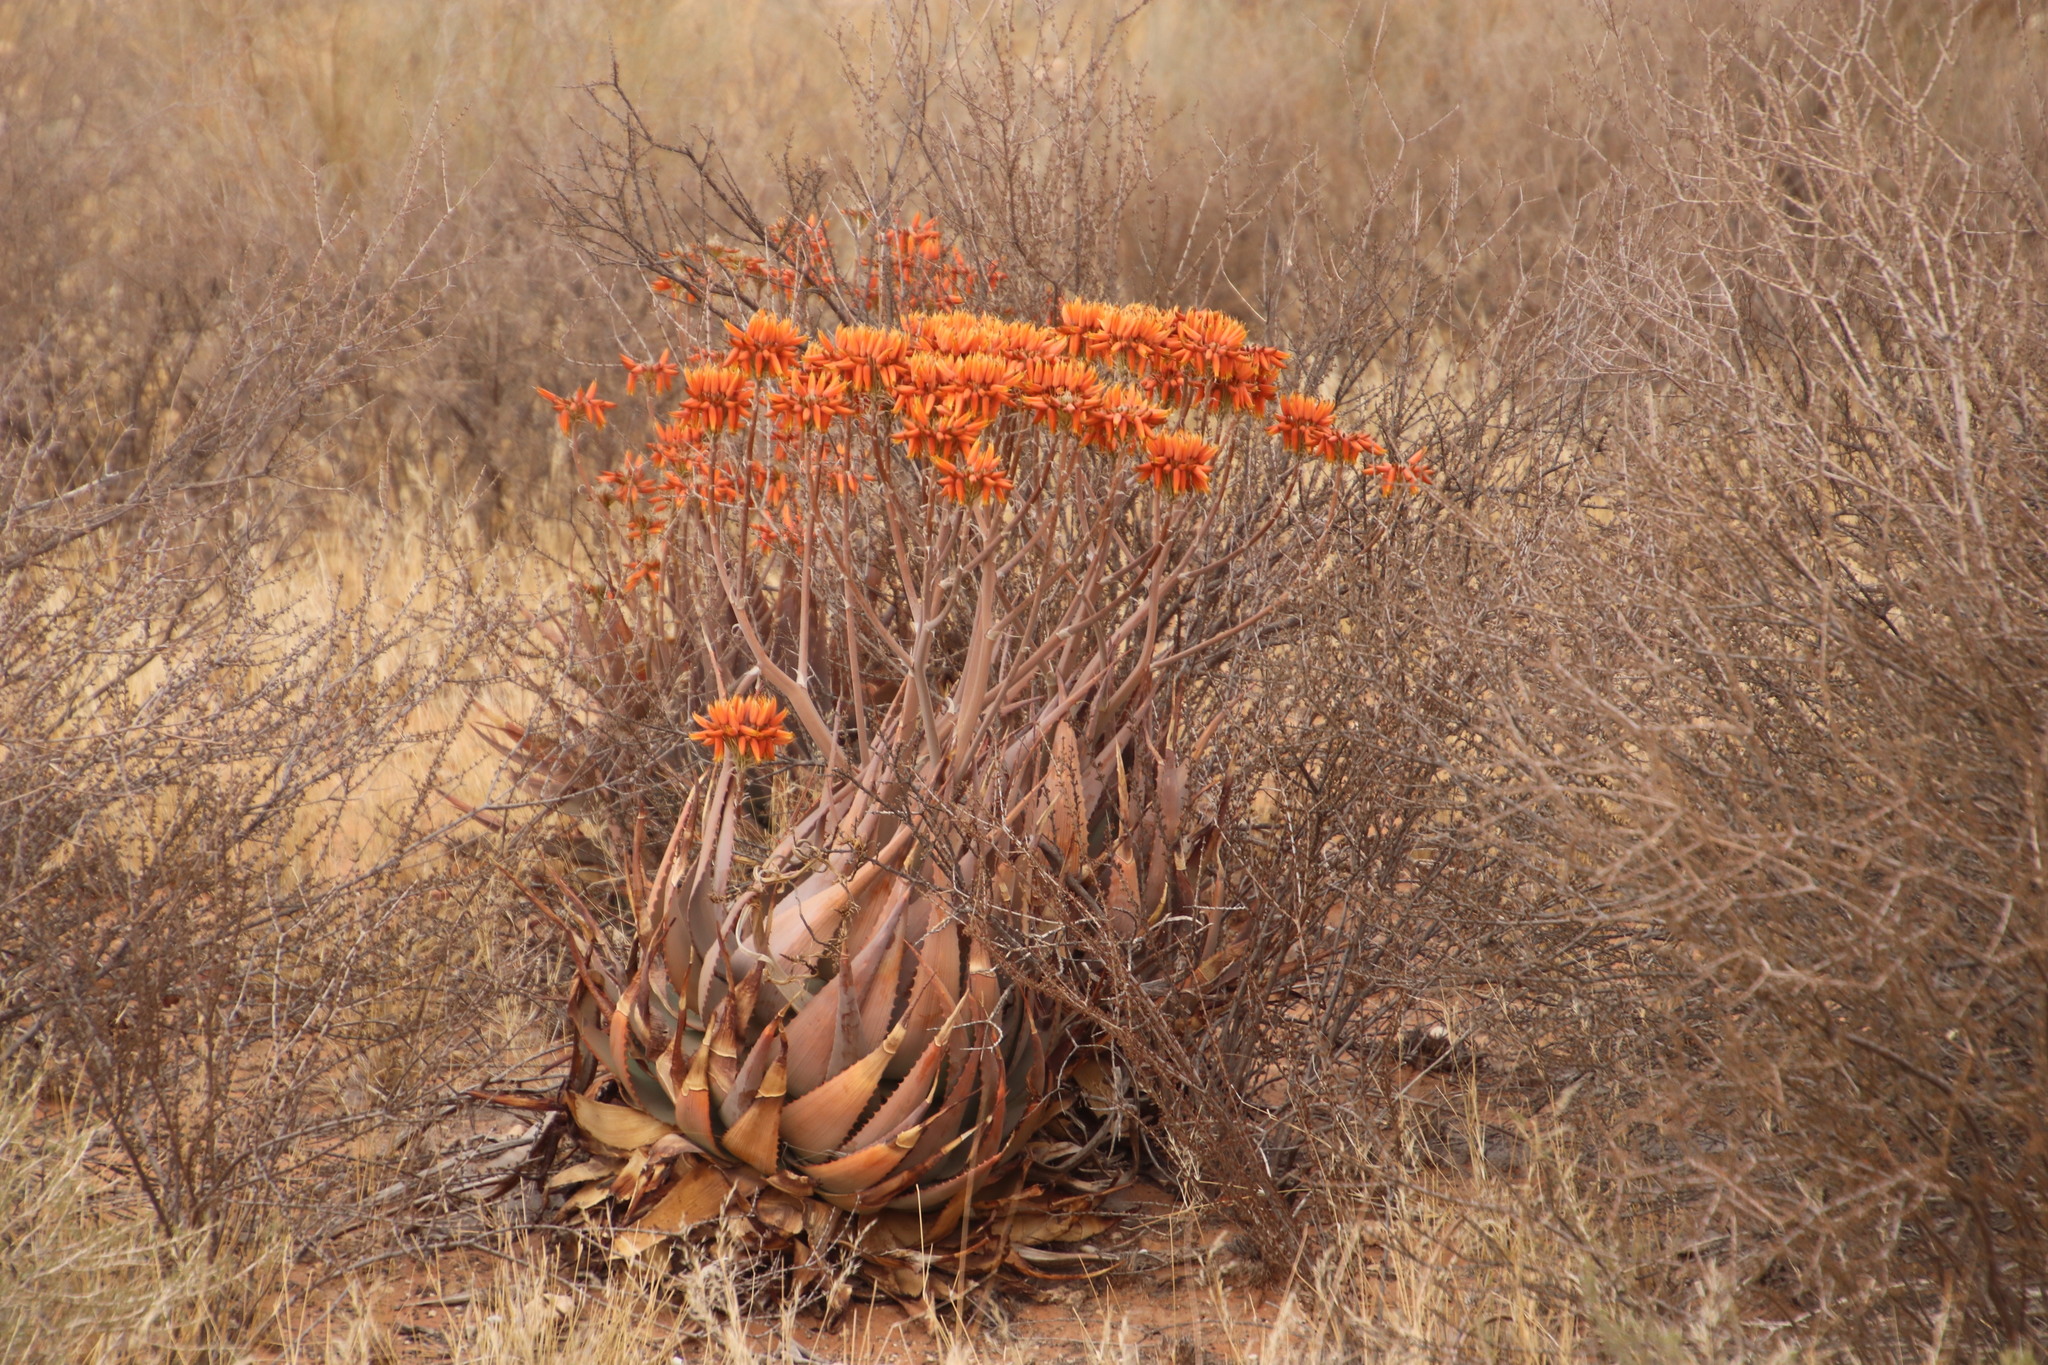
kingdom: Plantae
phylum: Tracheophyta
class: Liliopsida
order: Asparagales
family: Asphodelaceae
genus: Aloe
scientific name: Aloe hereroensis
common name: Herero aloe
